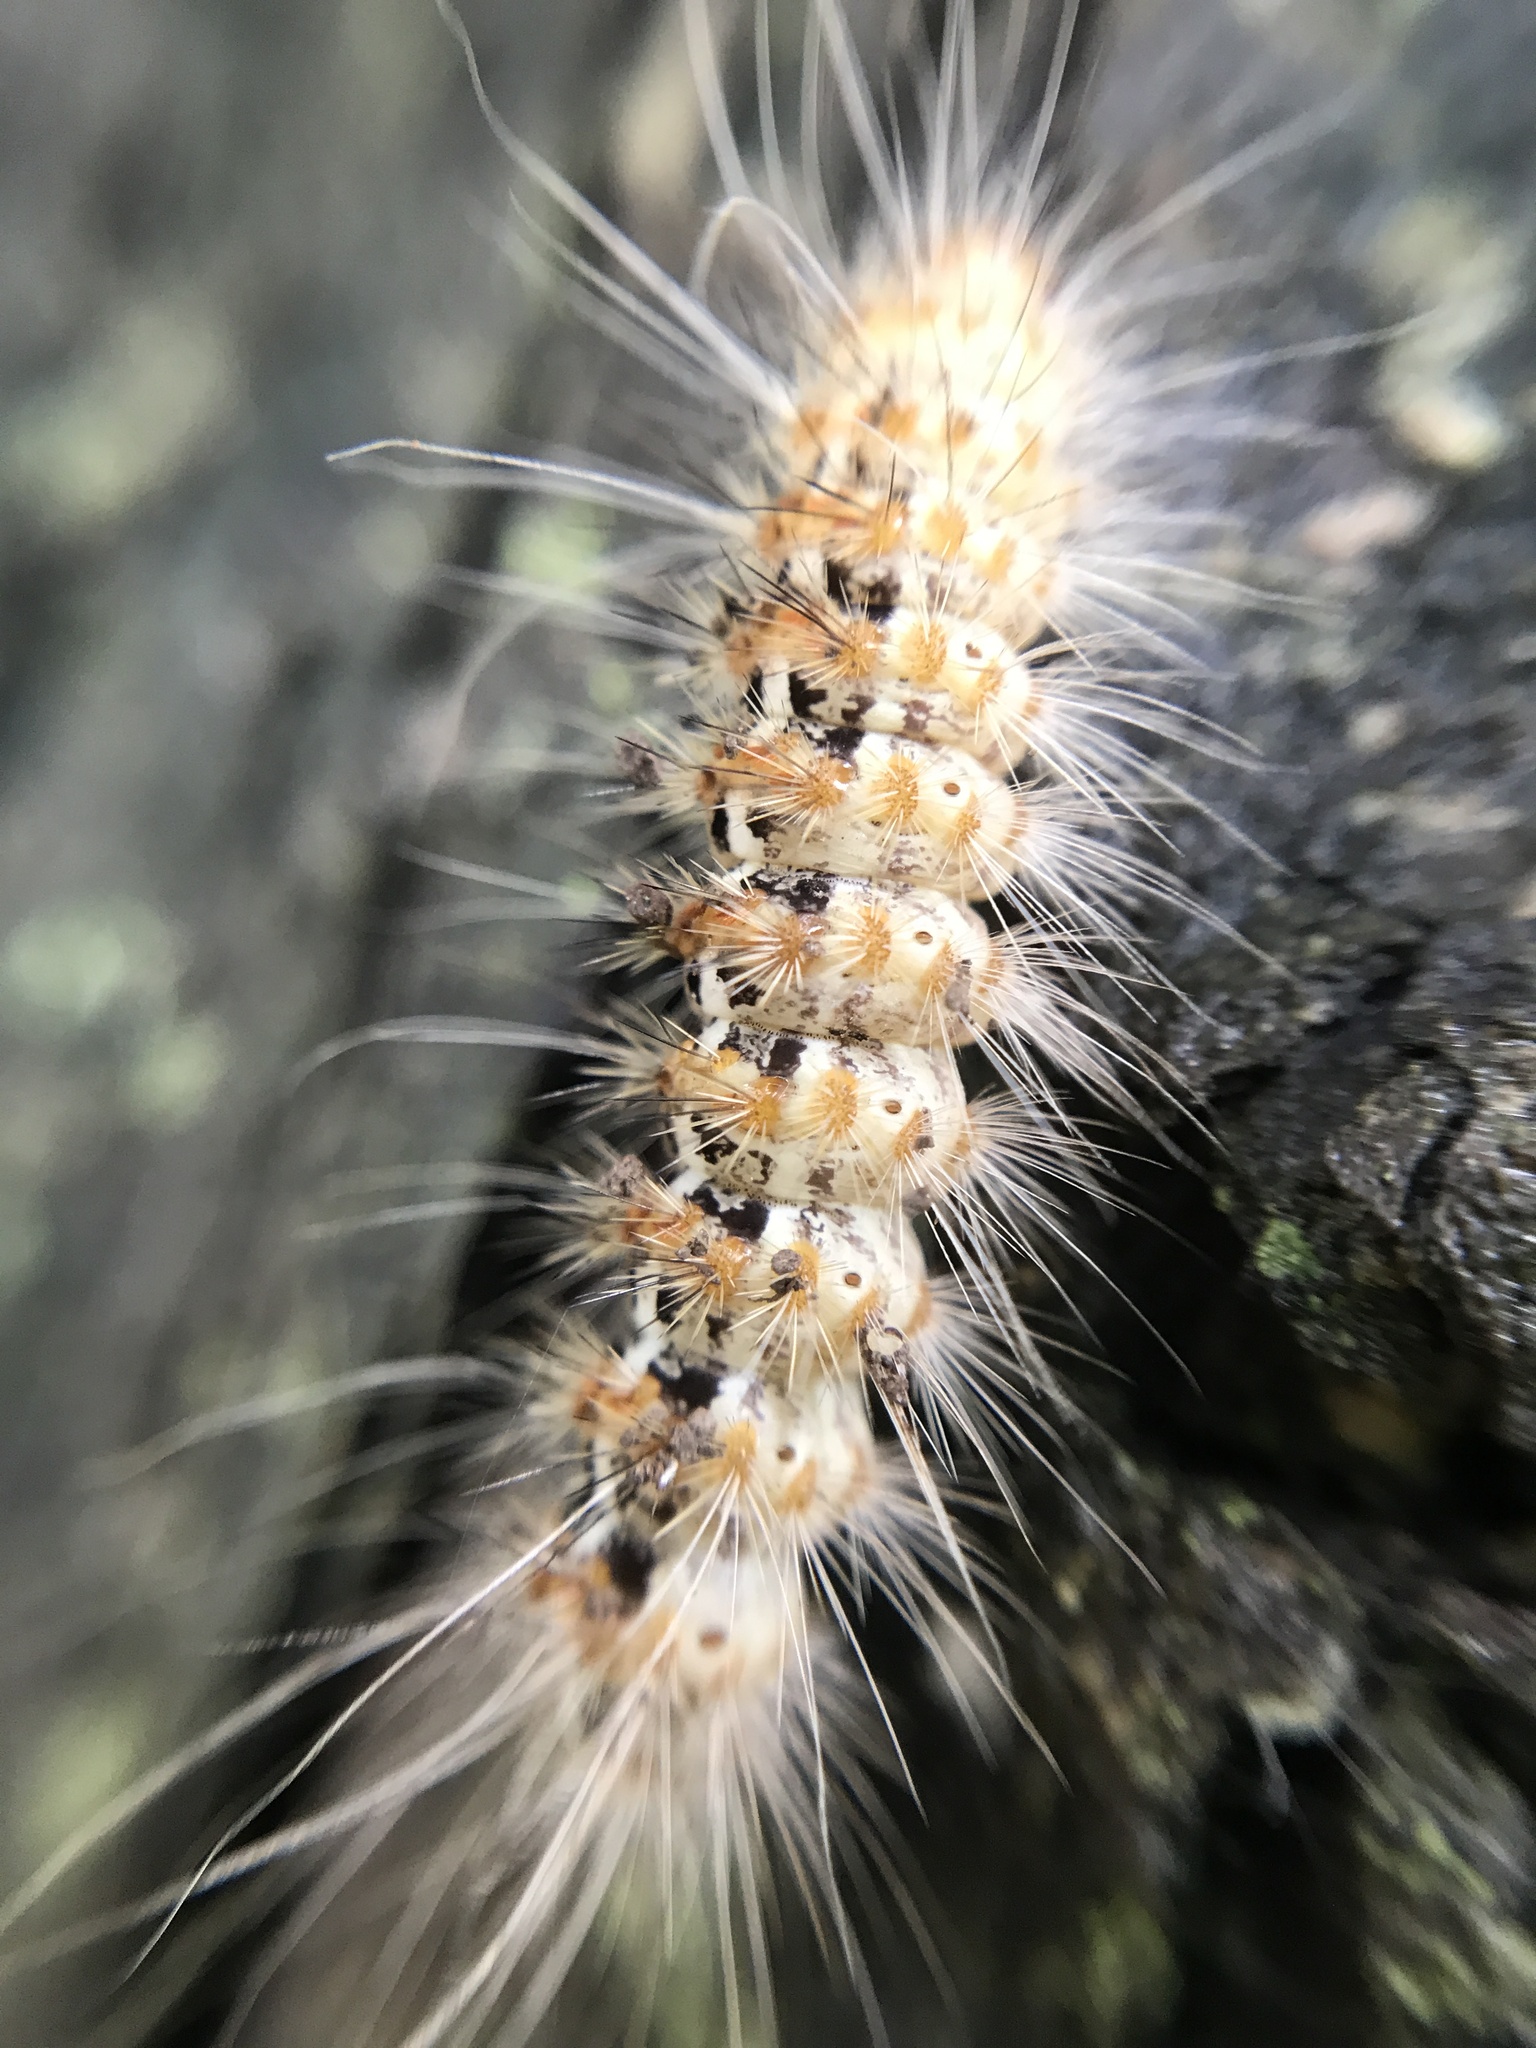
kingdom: Animalia
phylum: Arthropoda
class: Insecta
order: Lepidoptera
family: Erebidae
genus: Paracles
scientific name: Paracles deserticola
